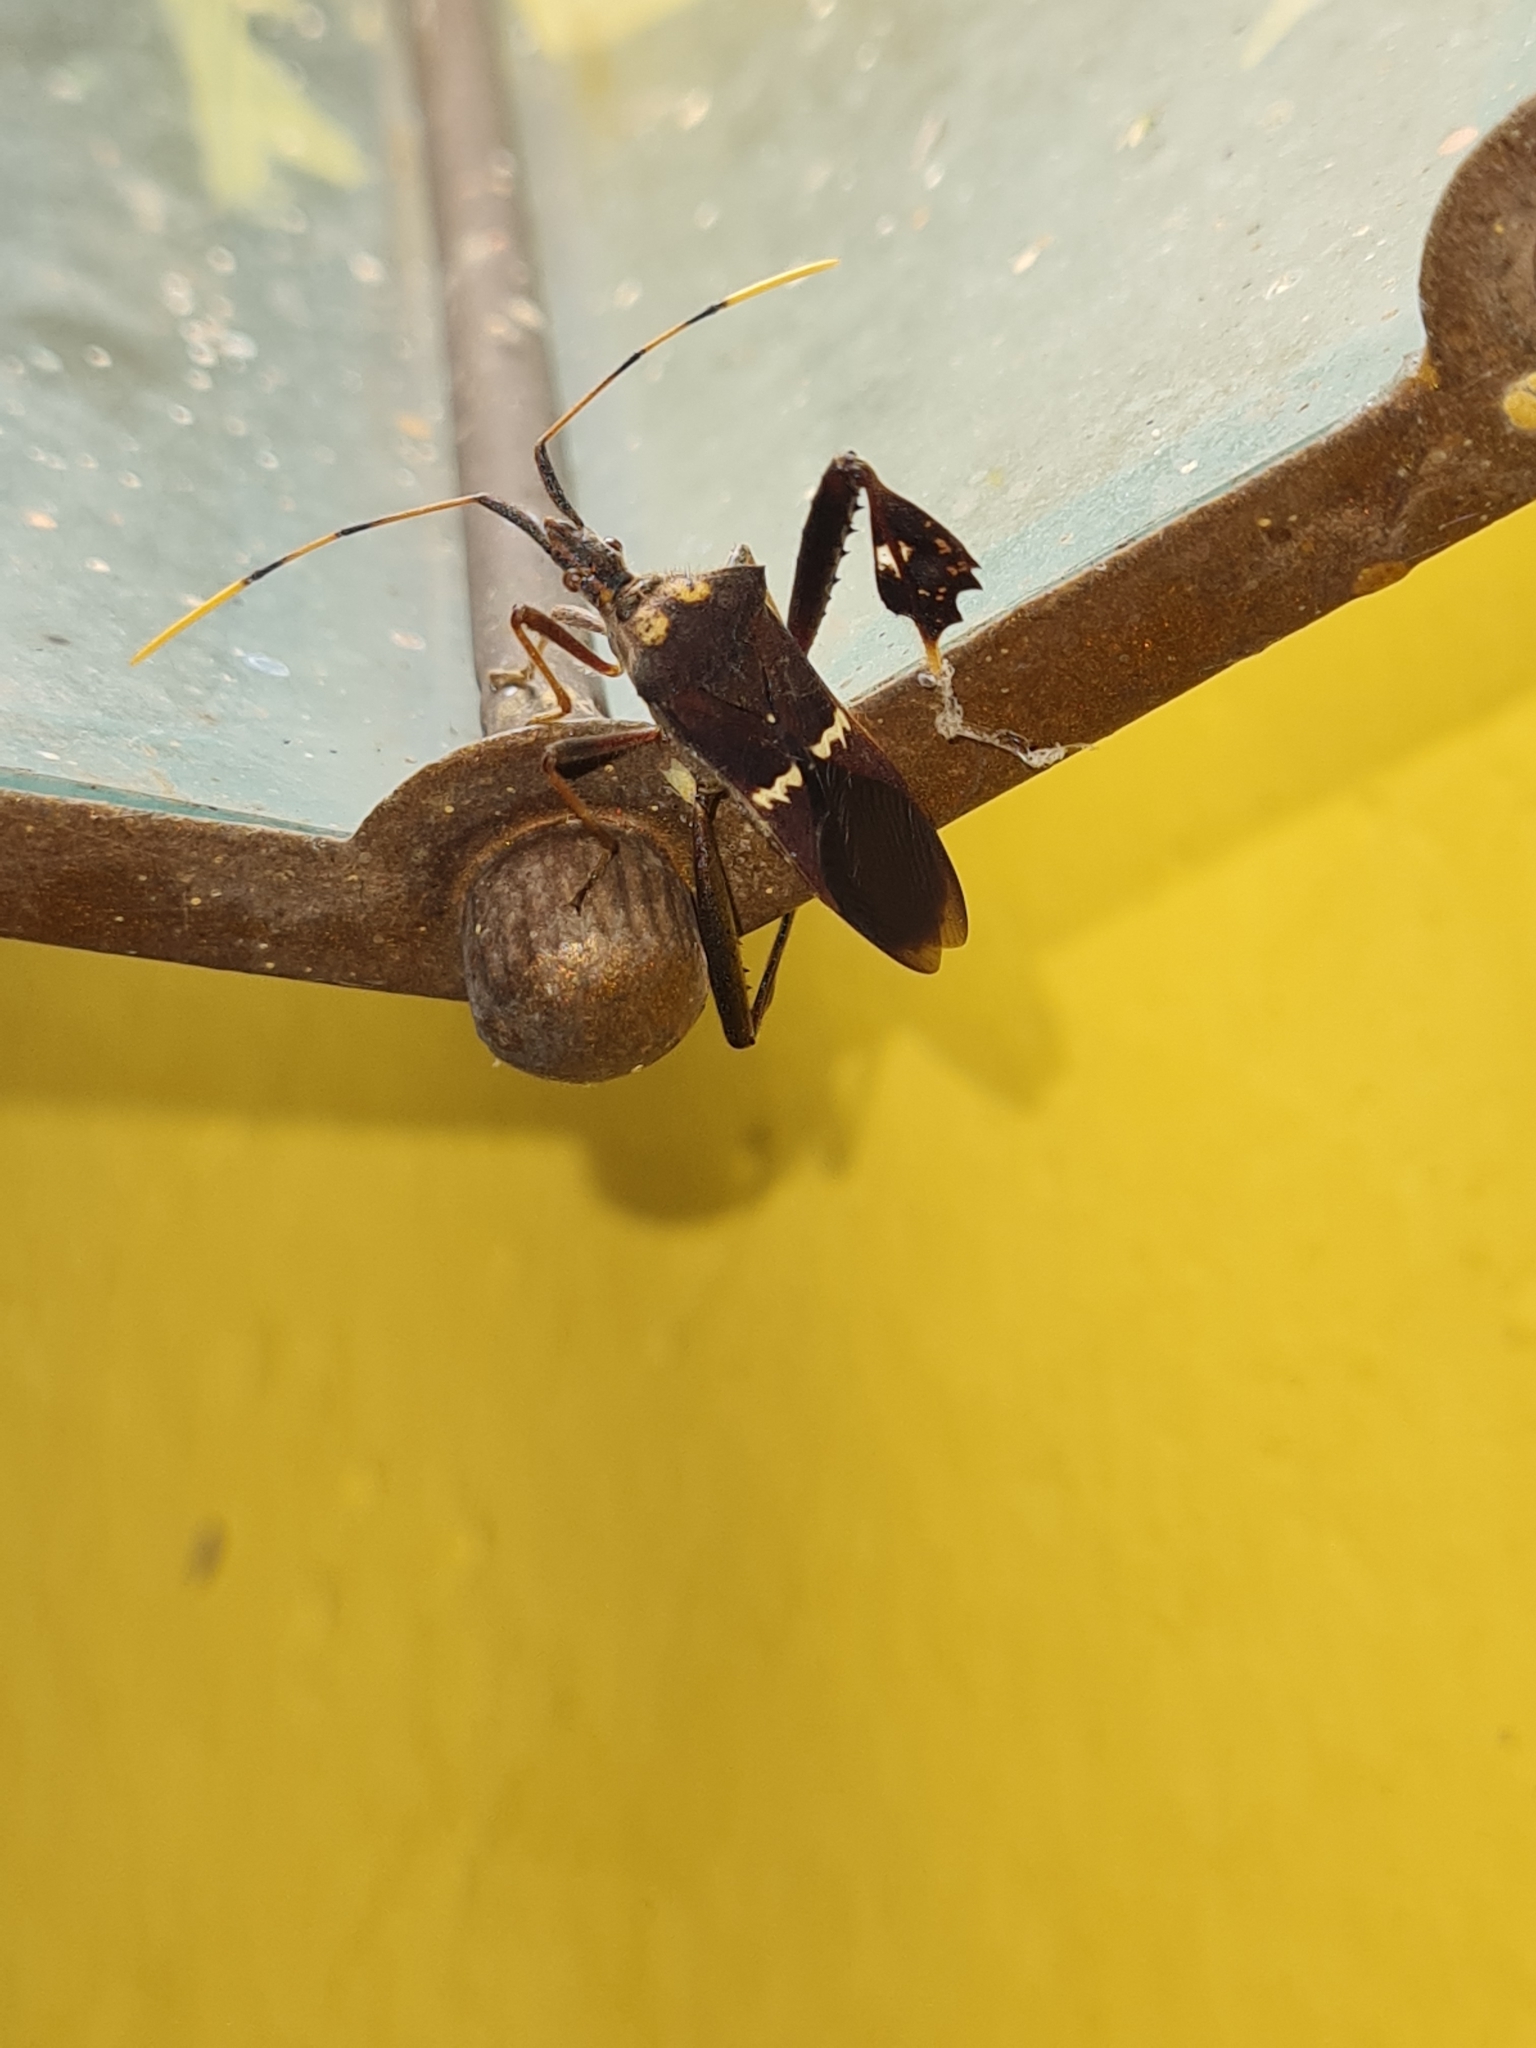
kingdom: Animalia
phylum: Arthropoda
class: Insecta
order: Hemiptera
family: Coreidae
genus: Leptoglossus
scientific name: Leptoglossus zonatus
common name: Large-legged bug
